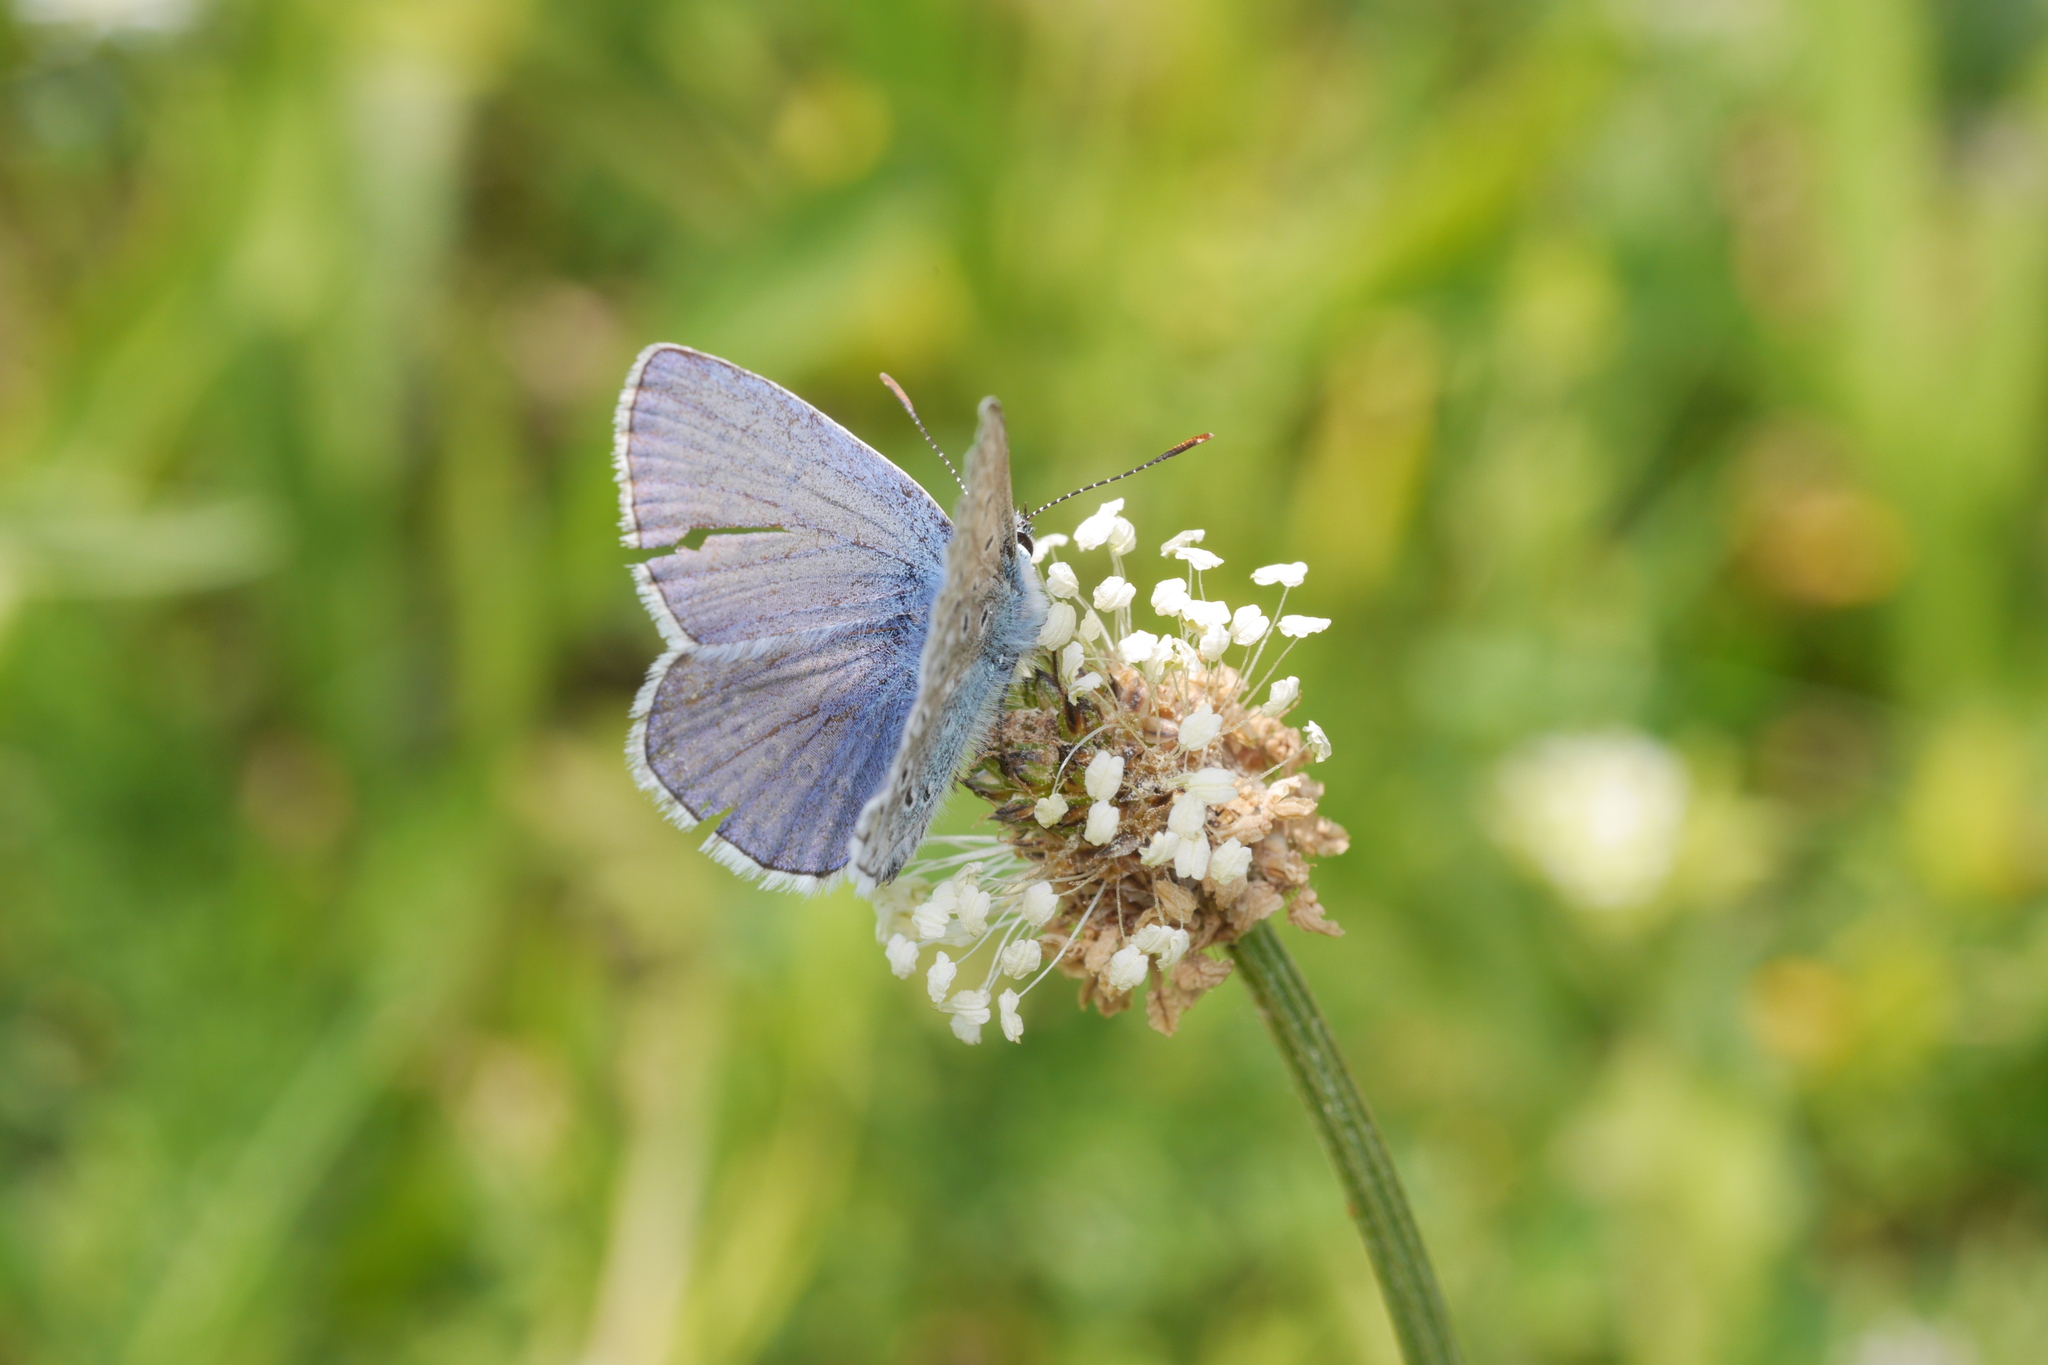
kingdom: Animalia
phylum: Arthropoda
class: Insecta
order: Lepidoptera
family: Lycaenidae
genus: Polyommatus
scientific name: Polyommatus icarus
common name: Common blue
